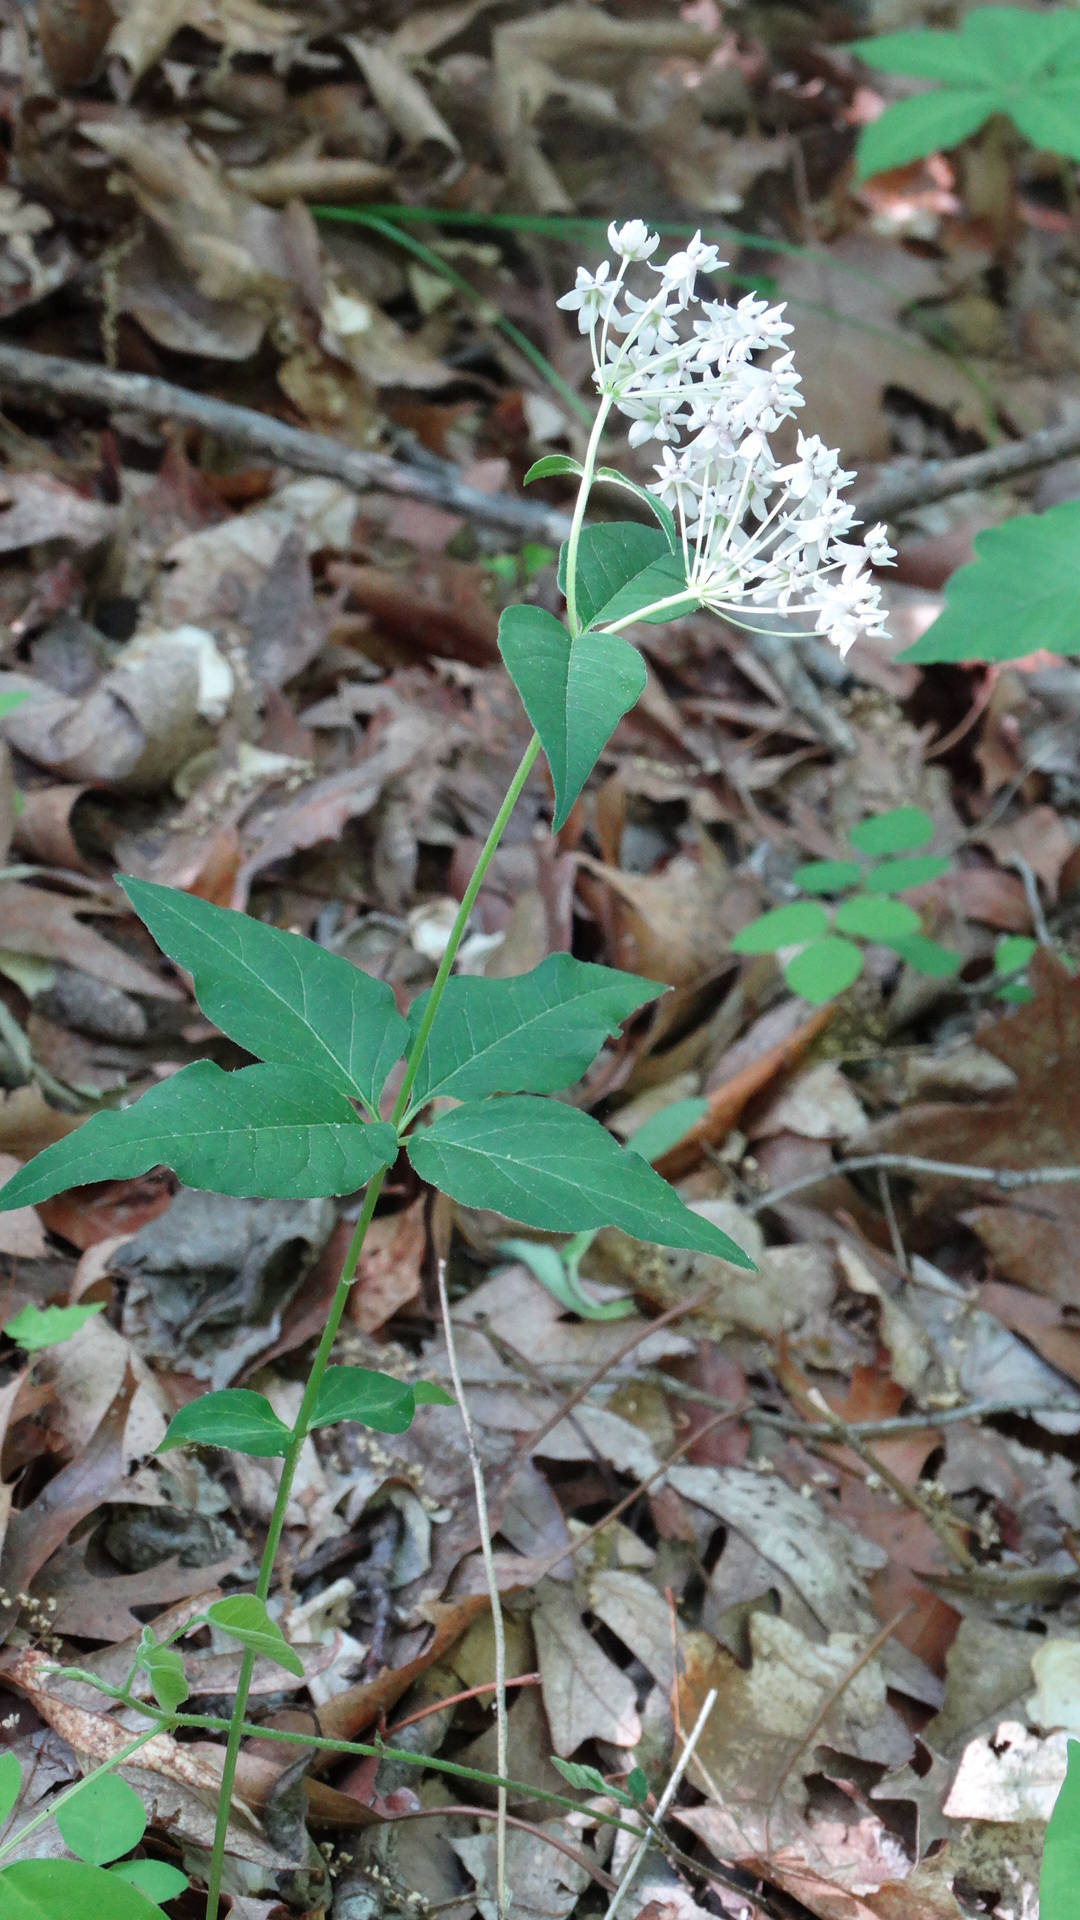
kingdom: Plantae
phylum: Tracheophyta
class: Magnoliopsida
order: Gentianales
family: Apocynaceae
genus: Asclepias
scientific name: Asclepias quadrifolia
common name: Whorled milkweed
